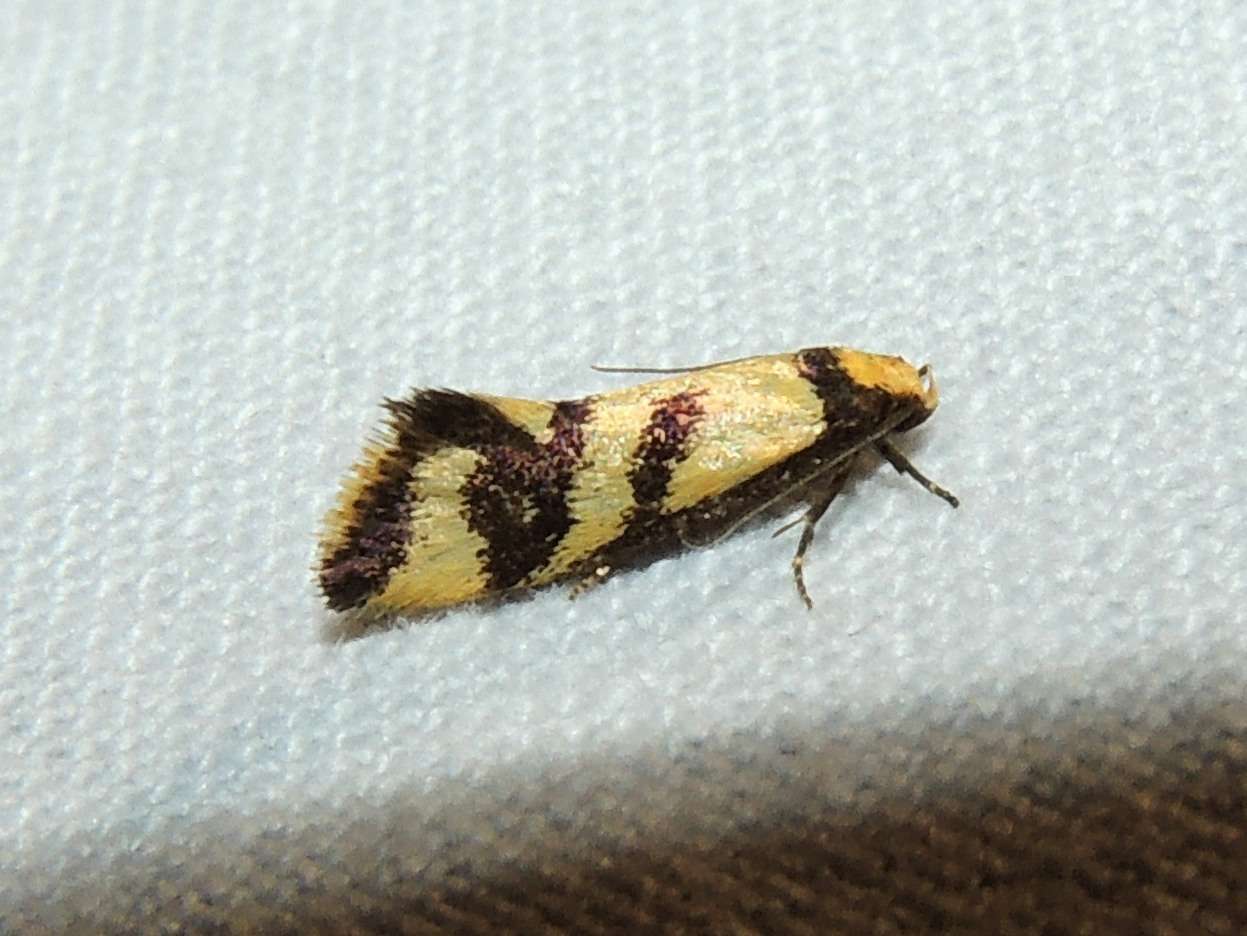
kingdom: Animalia
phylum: Arthropoda
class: Insecta
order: Lepidoptera
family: Oecophoridae
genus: Olbonoma
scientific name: Olbonoma triptycha
